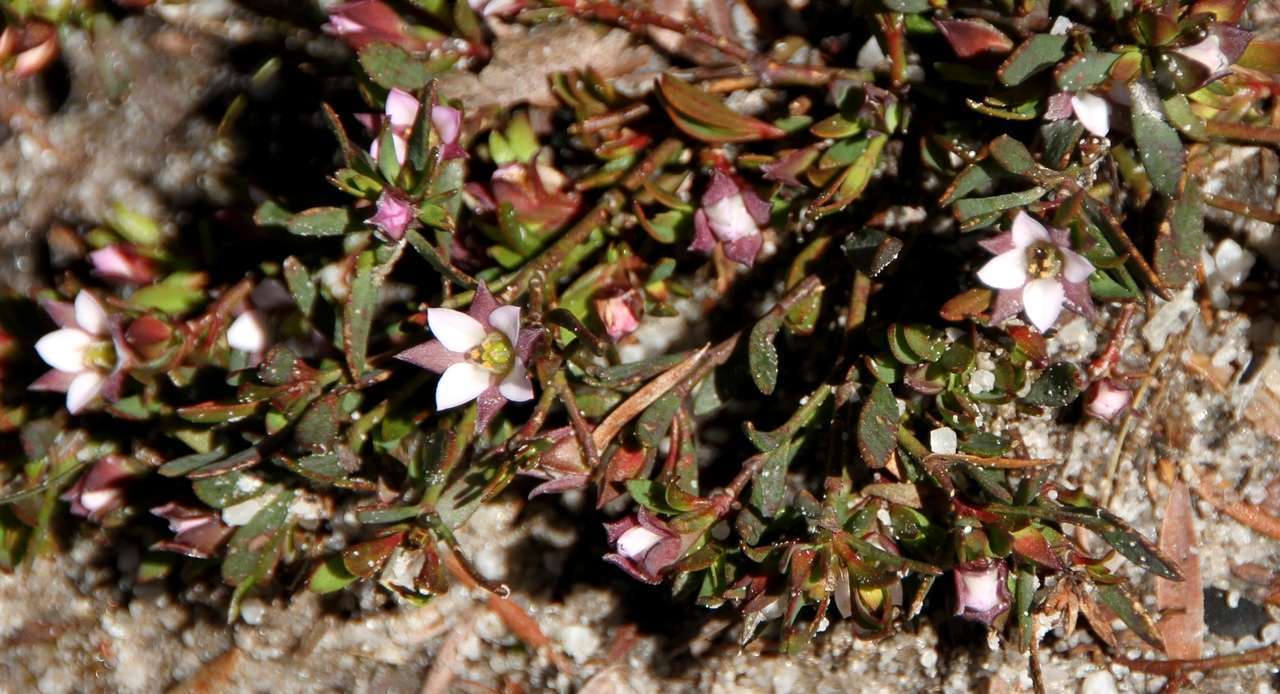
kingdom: Plantae
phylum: Tracheophyta
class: Magnoliopsida
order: Sapindales
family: Rutaceae
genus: Boronia
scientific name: Boronia parviflora
